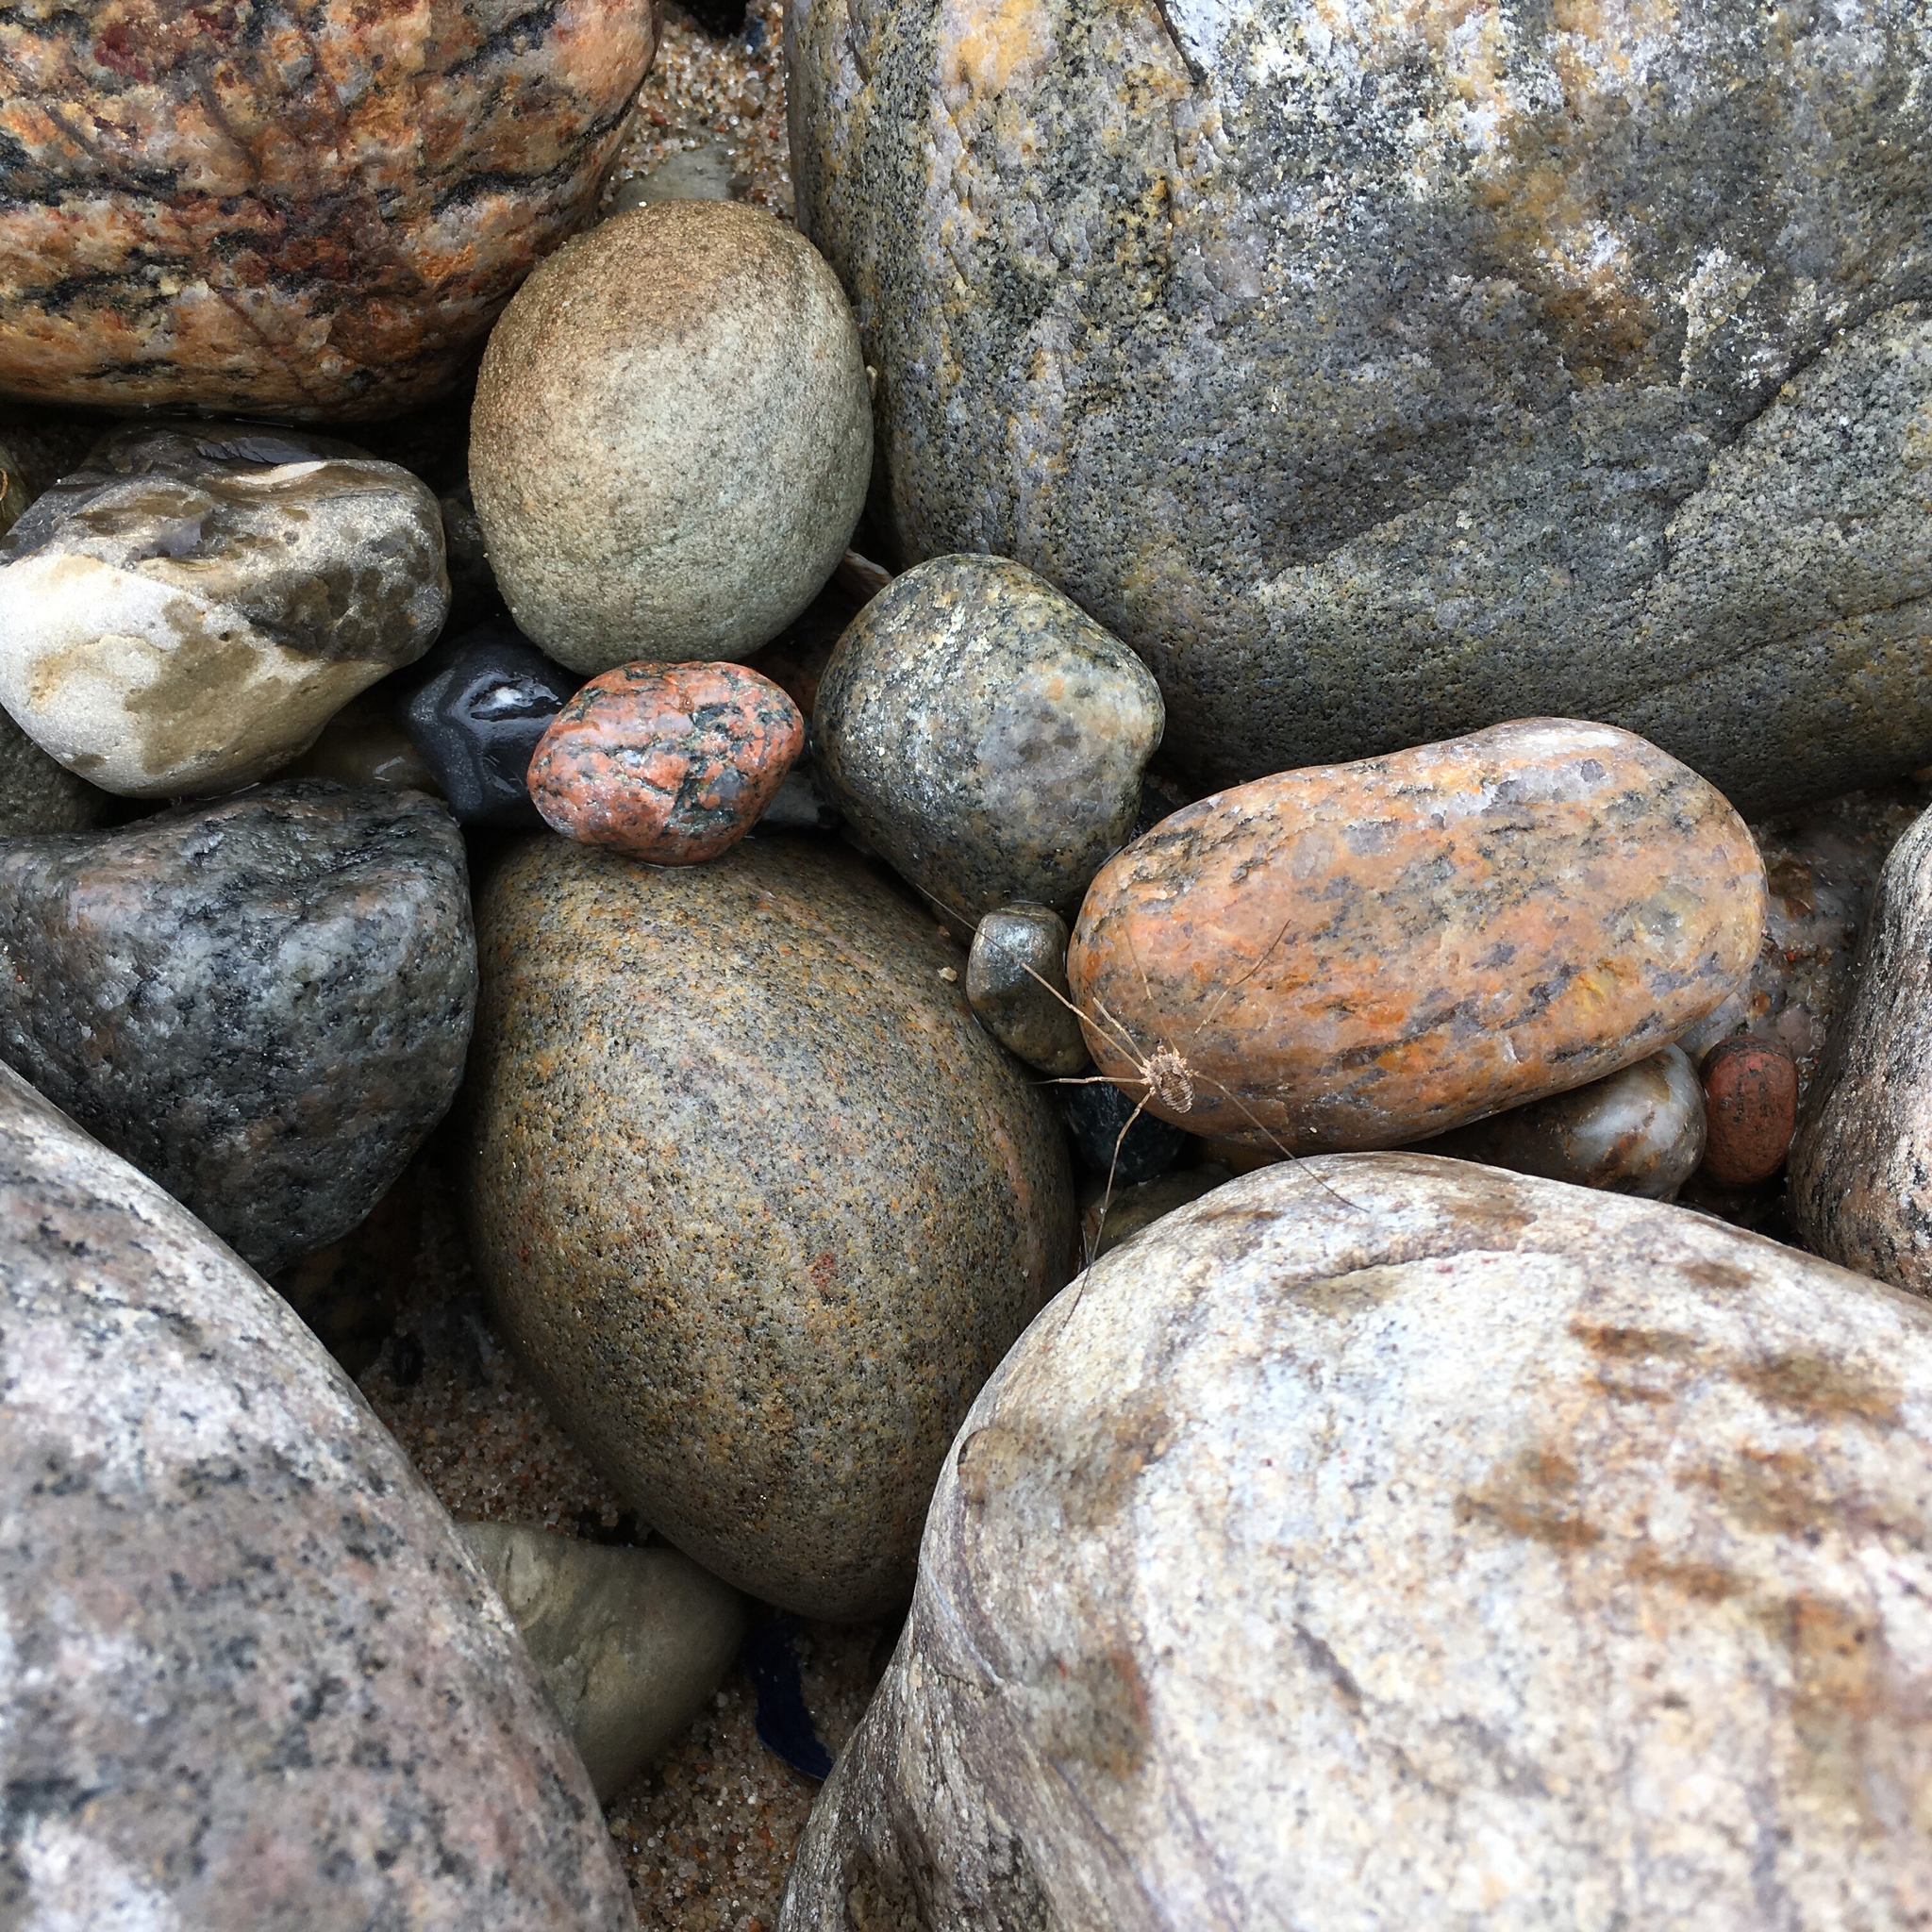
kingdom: Animalia
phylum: Arthropoda
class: Arachnida
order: Opiliones
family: Phalangiidae
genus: Phalangium
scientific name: Phalangium opilio
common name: Daddy longleg
